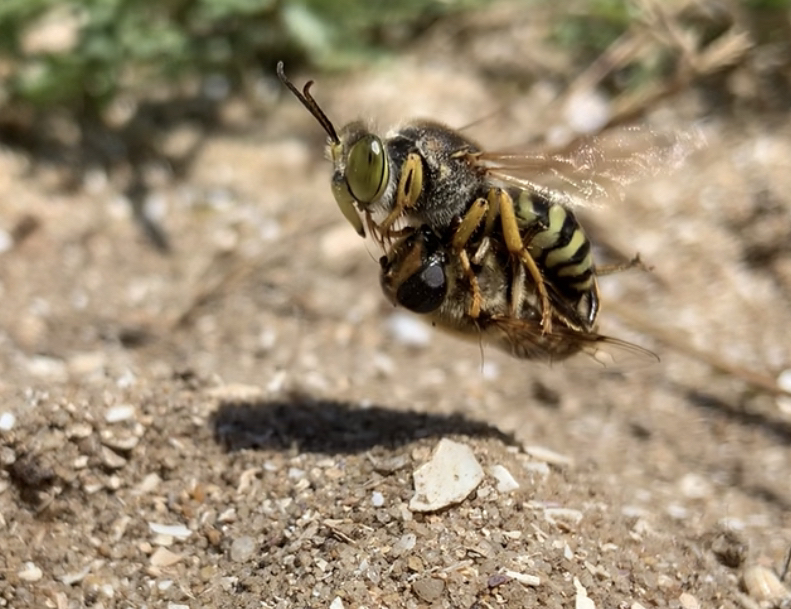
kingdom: Animalia
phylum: Arthropoda
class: Insecta
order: Hymenoptera
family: Crabronidae
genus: Bembix
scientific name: Bembix rostrata
